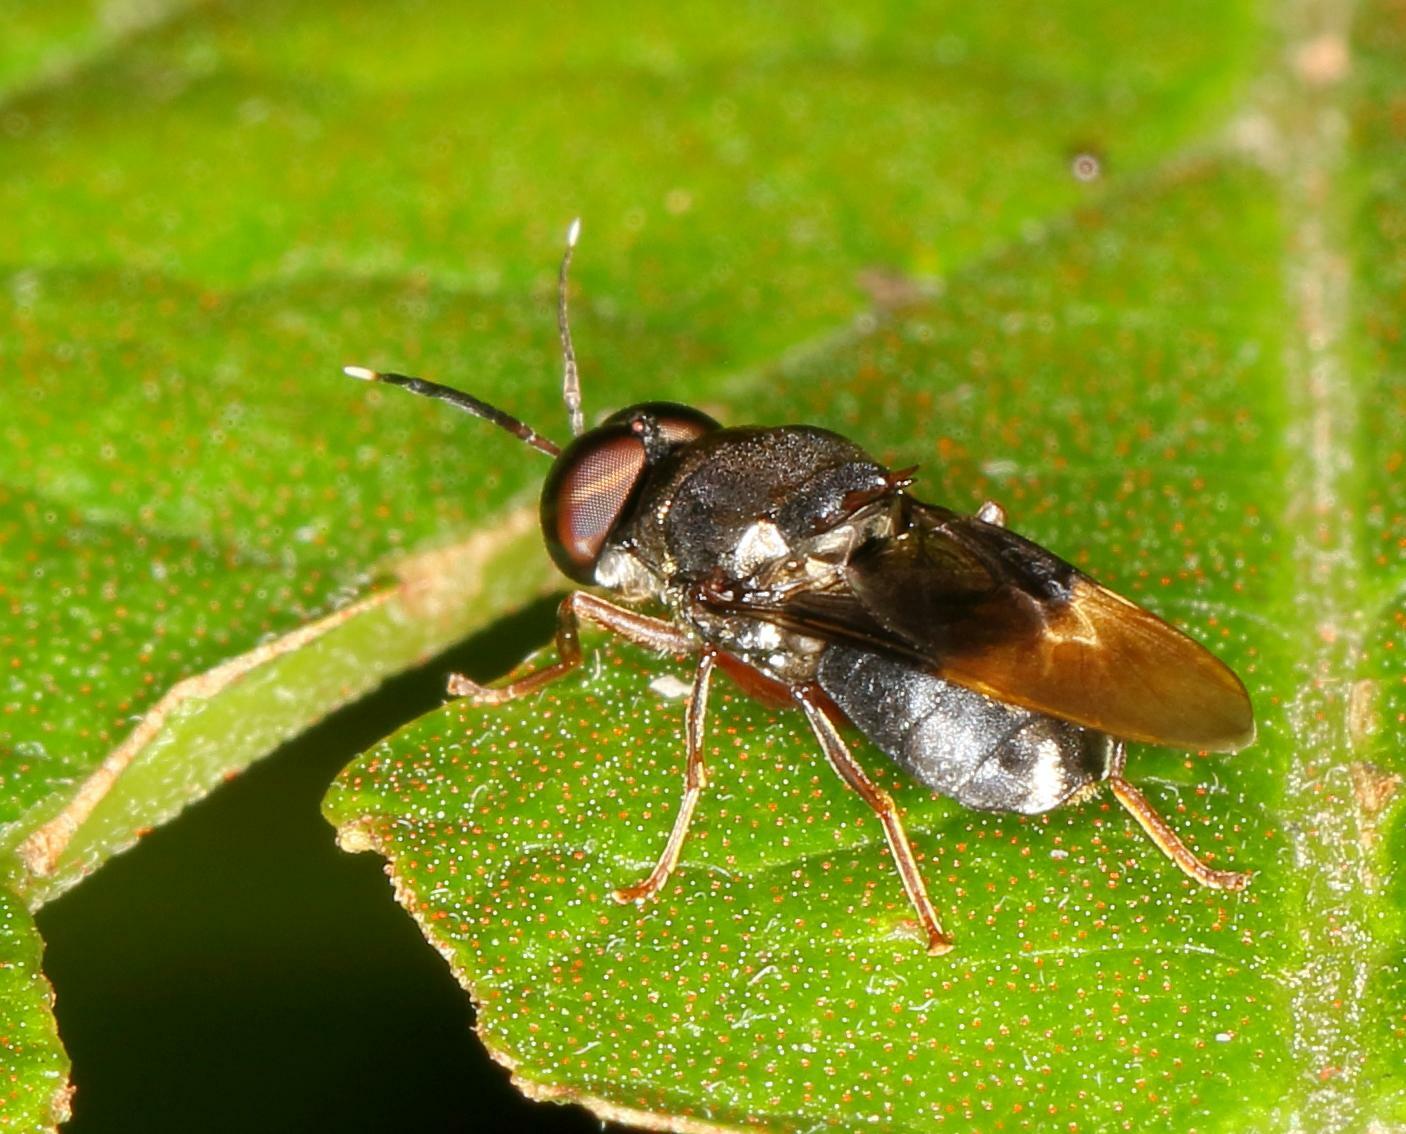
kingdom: Animalia
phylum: Arthropoda
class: Insecta
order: Diptera
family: Stratiomyidae
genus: Isomerocera
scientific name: Isomerocera quadrilineata
